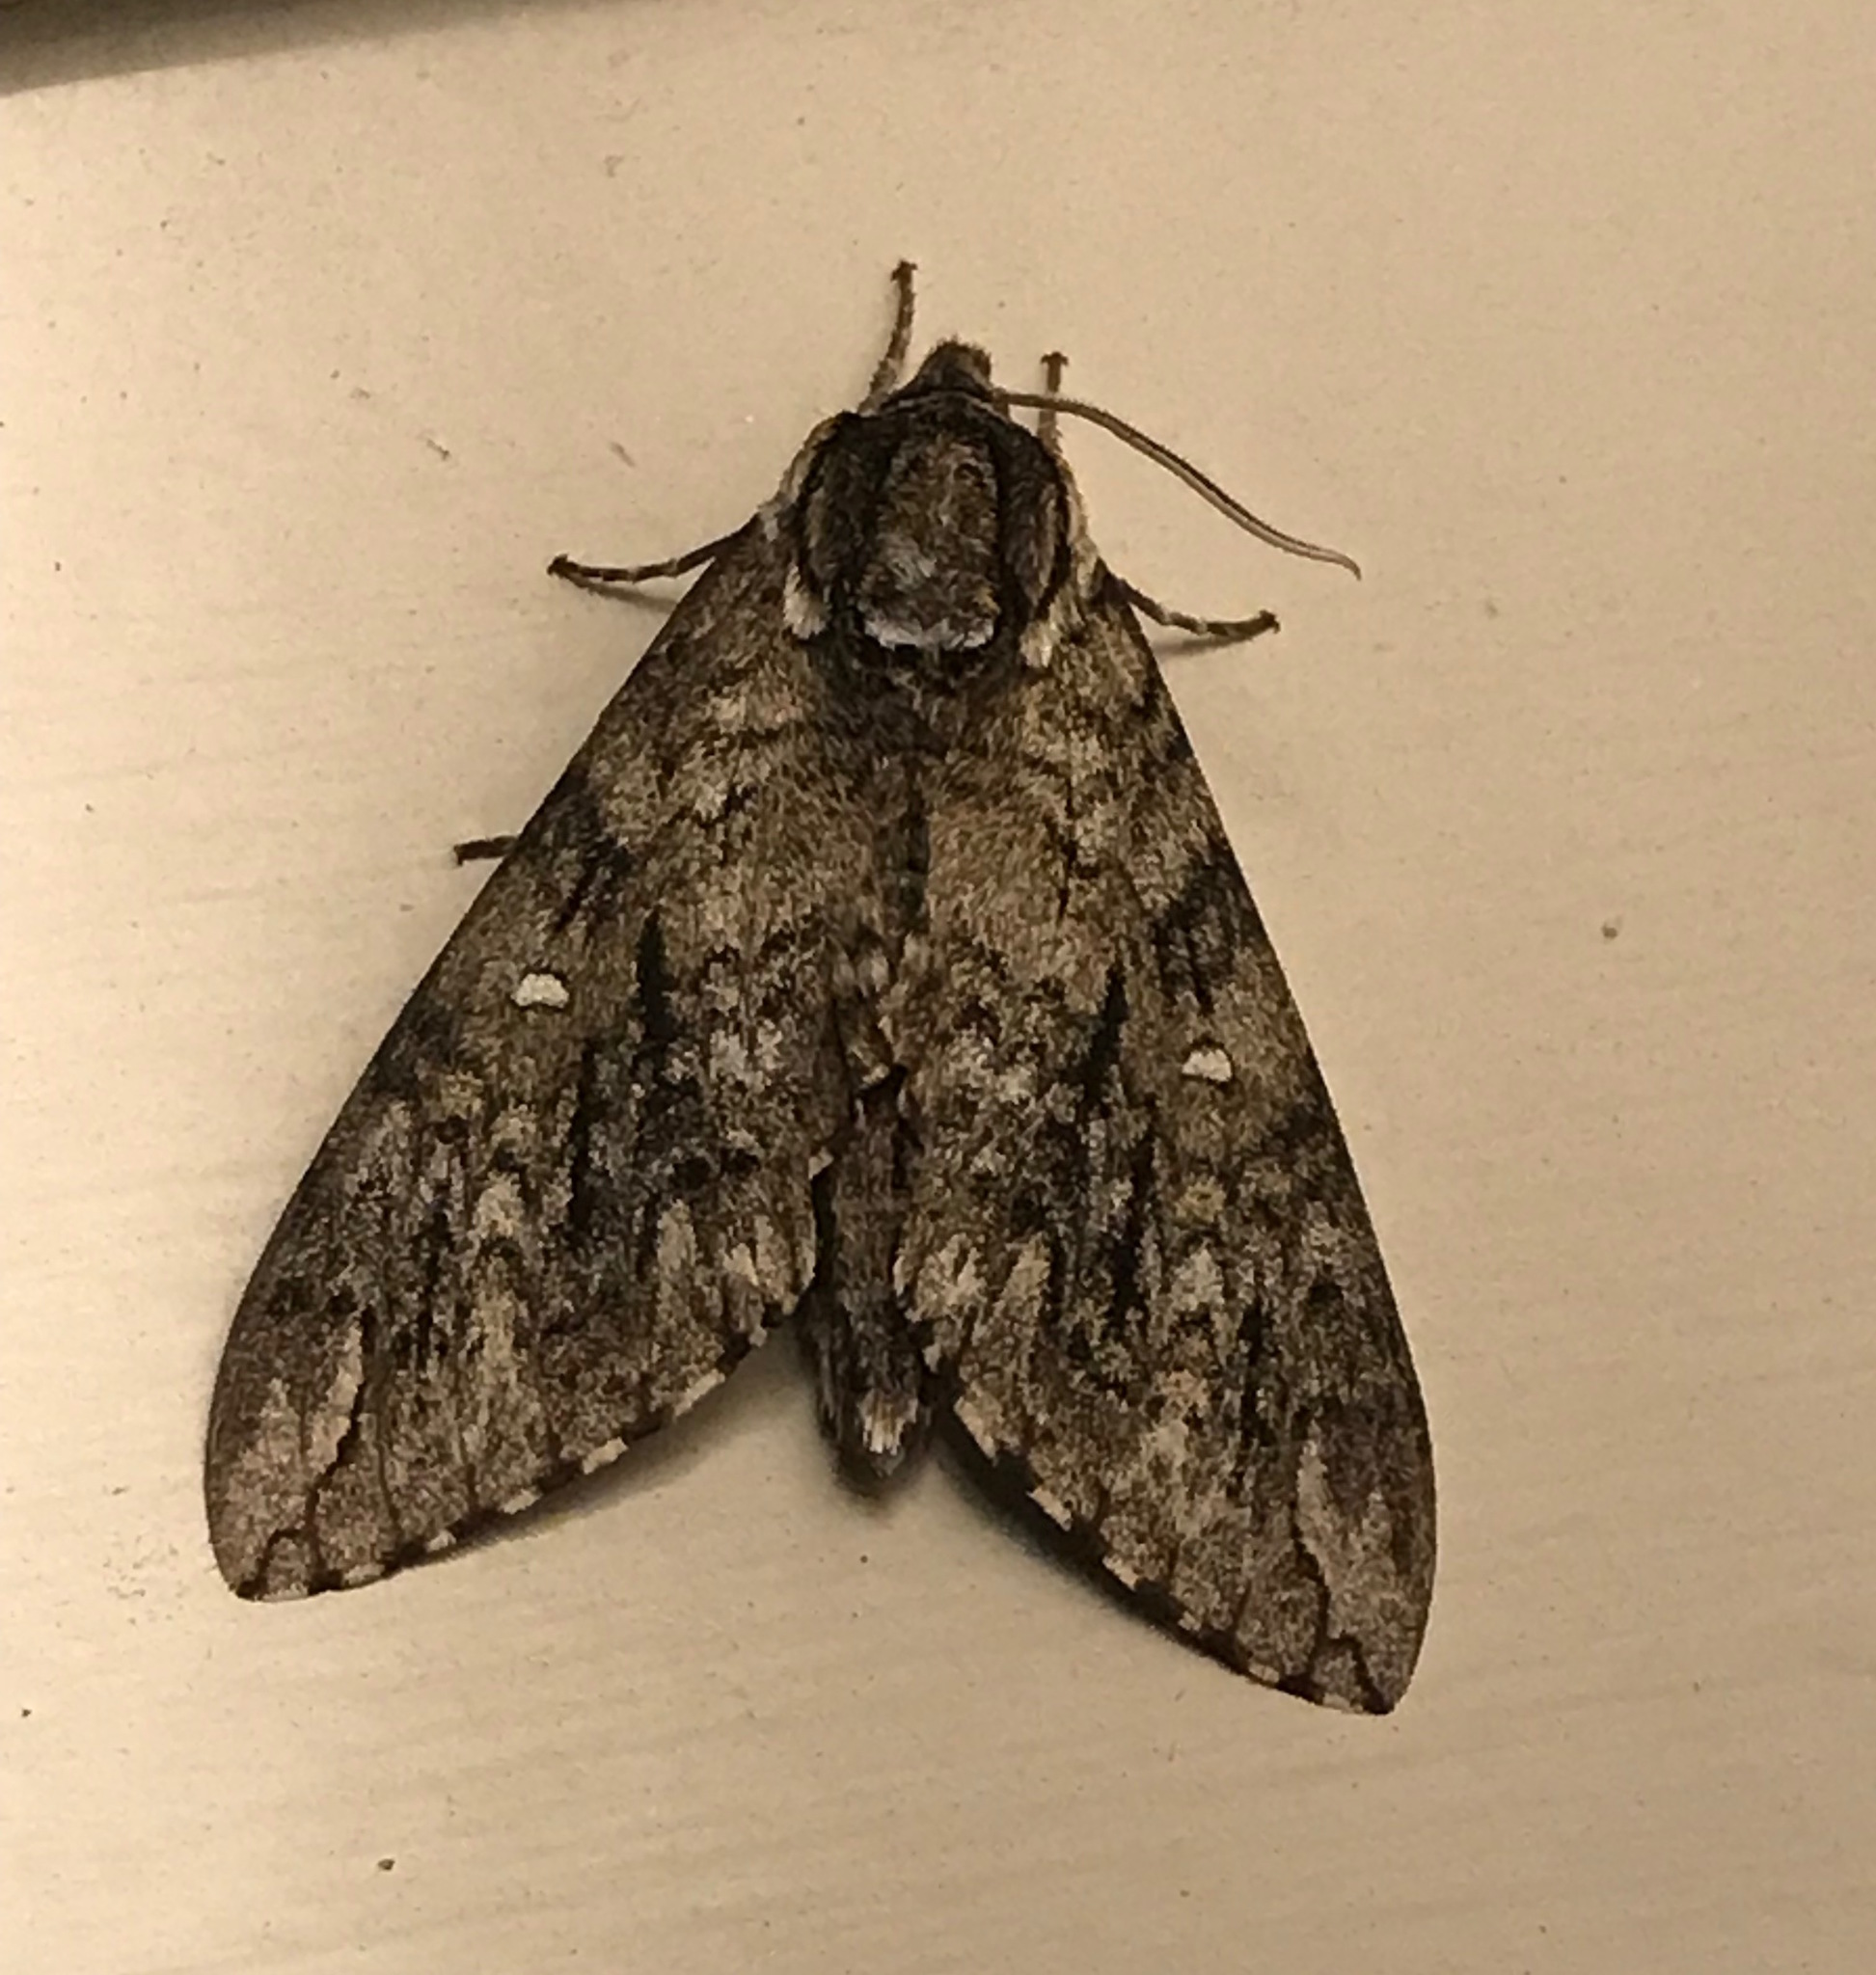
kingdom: Animalia
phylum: Arthropoda
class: Insecta
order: Lepidoptera
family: Sphingidae
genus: Ceratomia
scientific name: Ceratomia undulosa
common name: Waved sphinx
